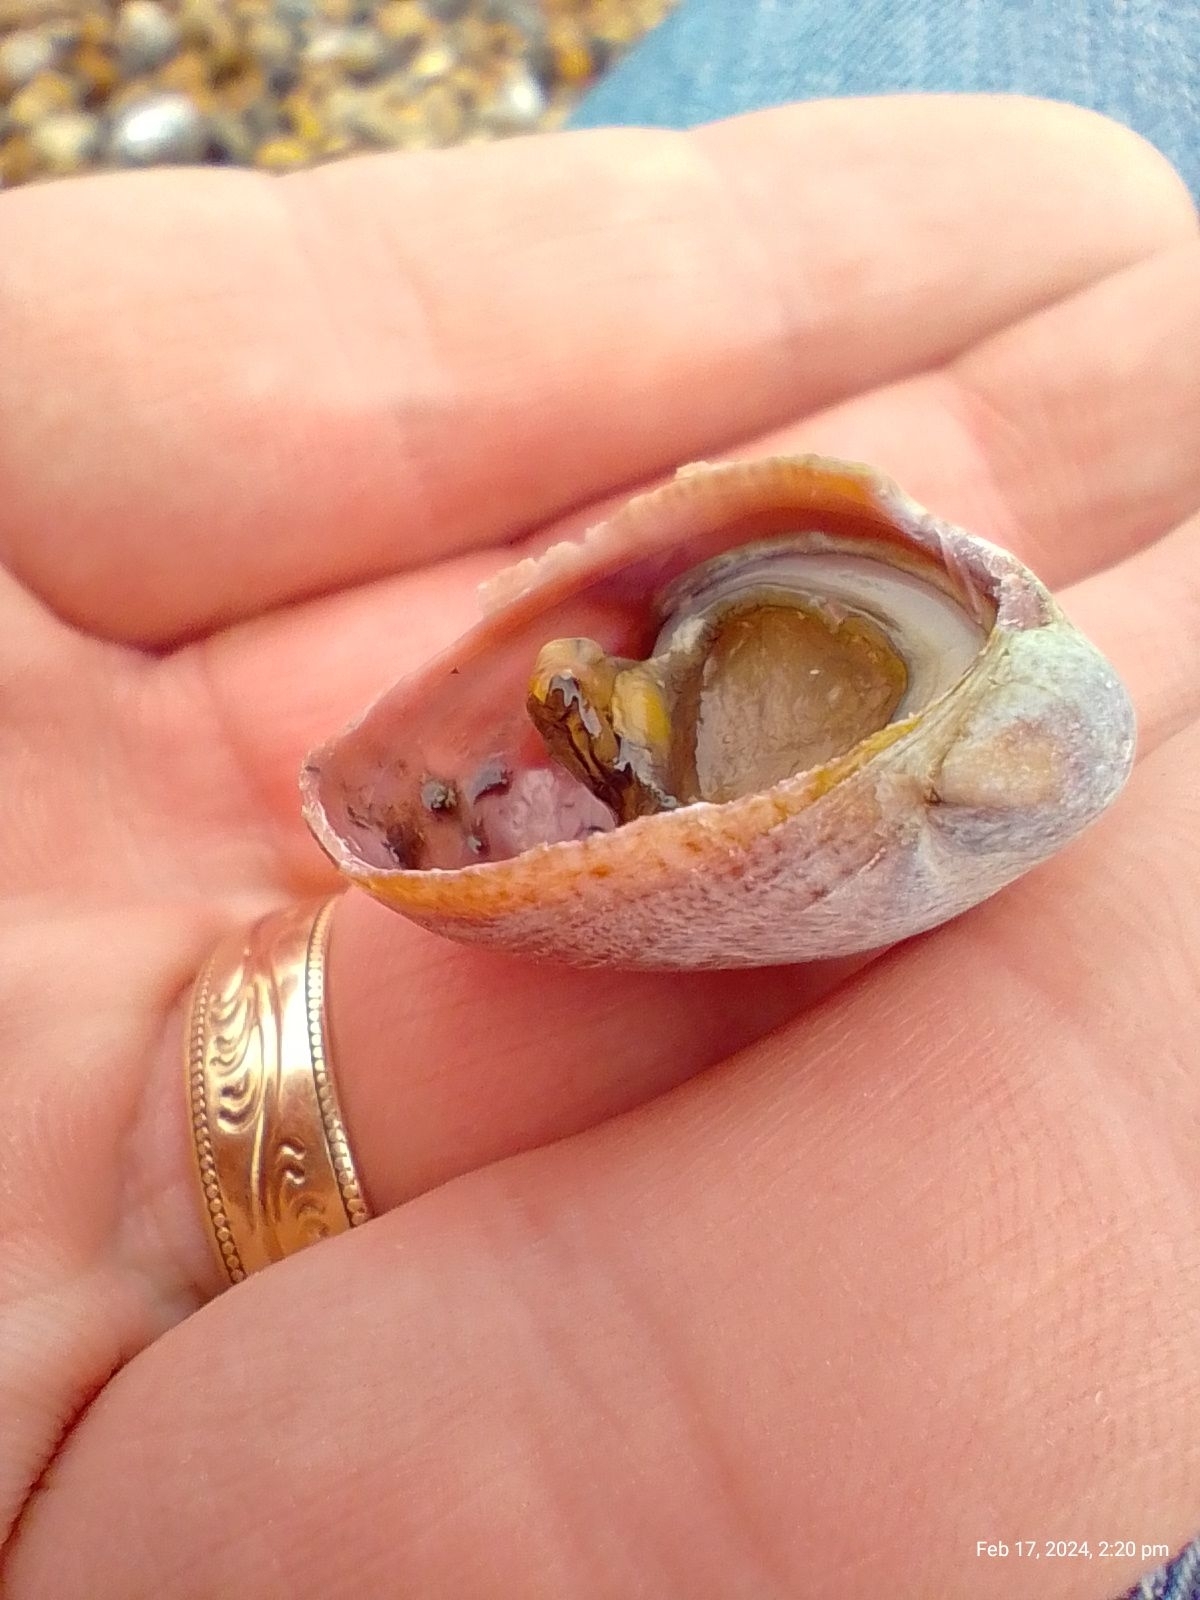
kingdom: Animalia
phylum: Mollusca
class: Gastropoda
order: Littorinimorpha
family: Calyptraeidae
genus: Crepidula
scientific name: Crepidula fornicata
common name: Slipper limpet
